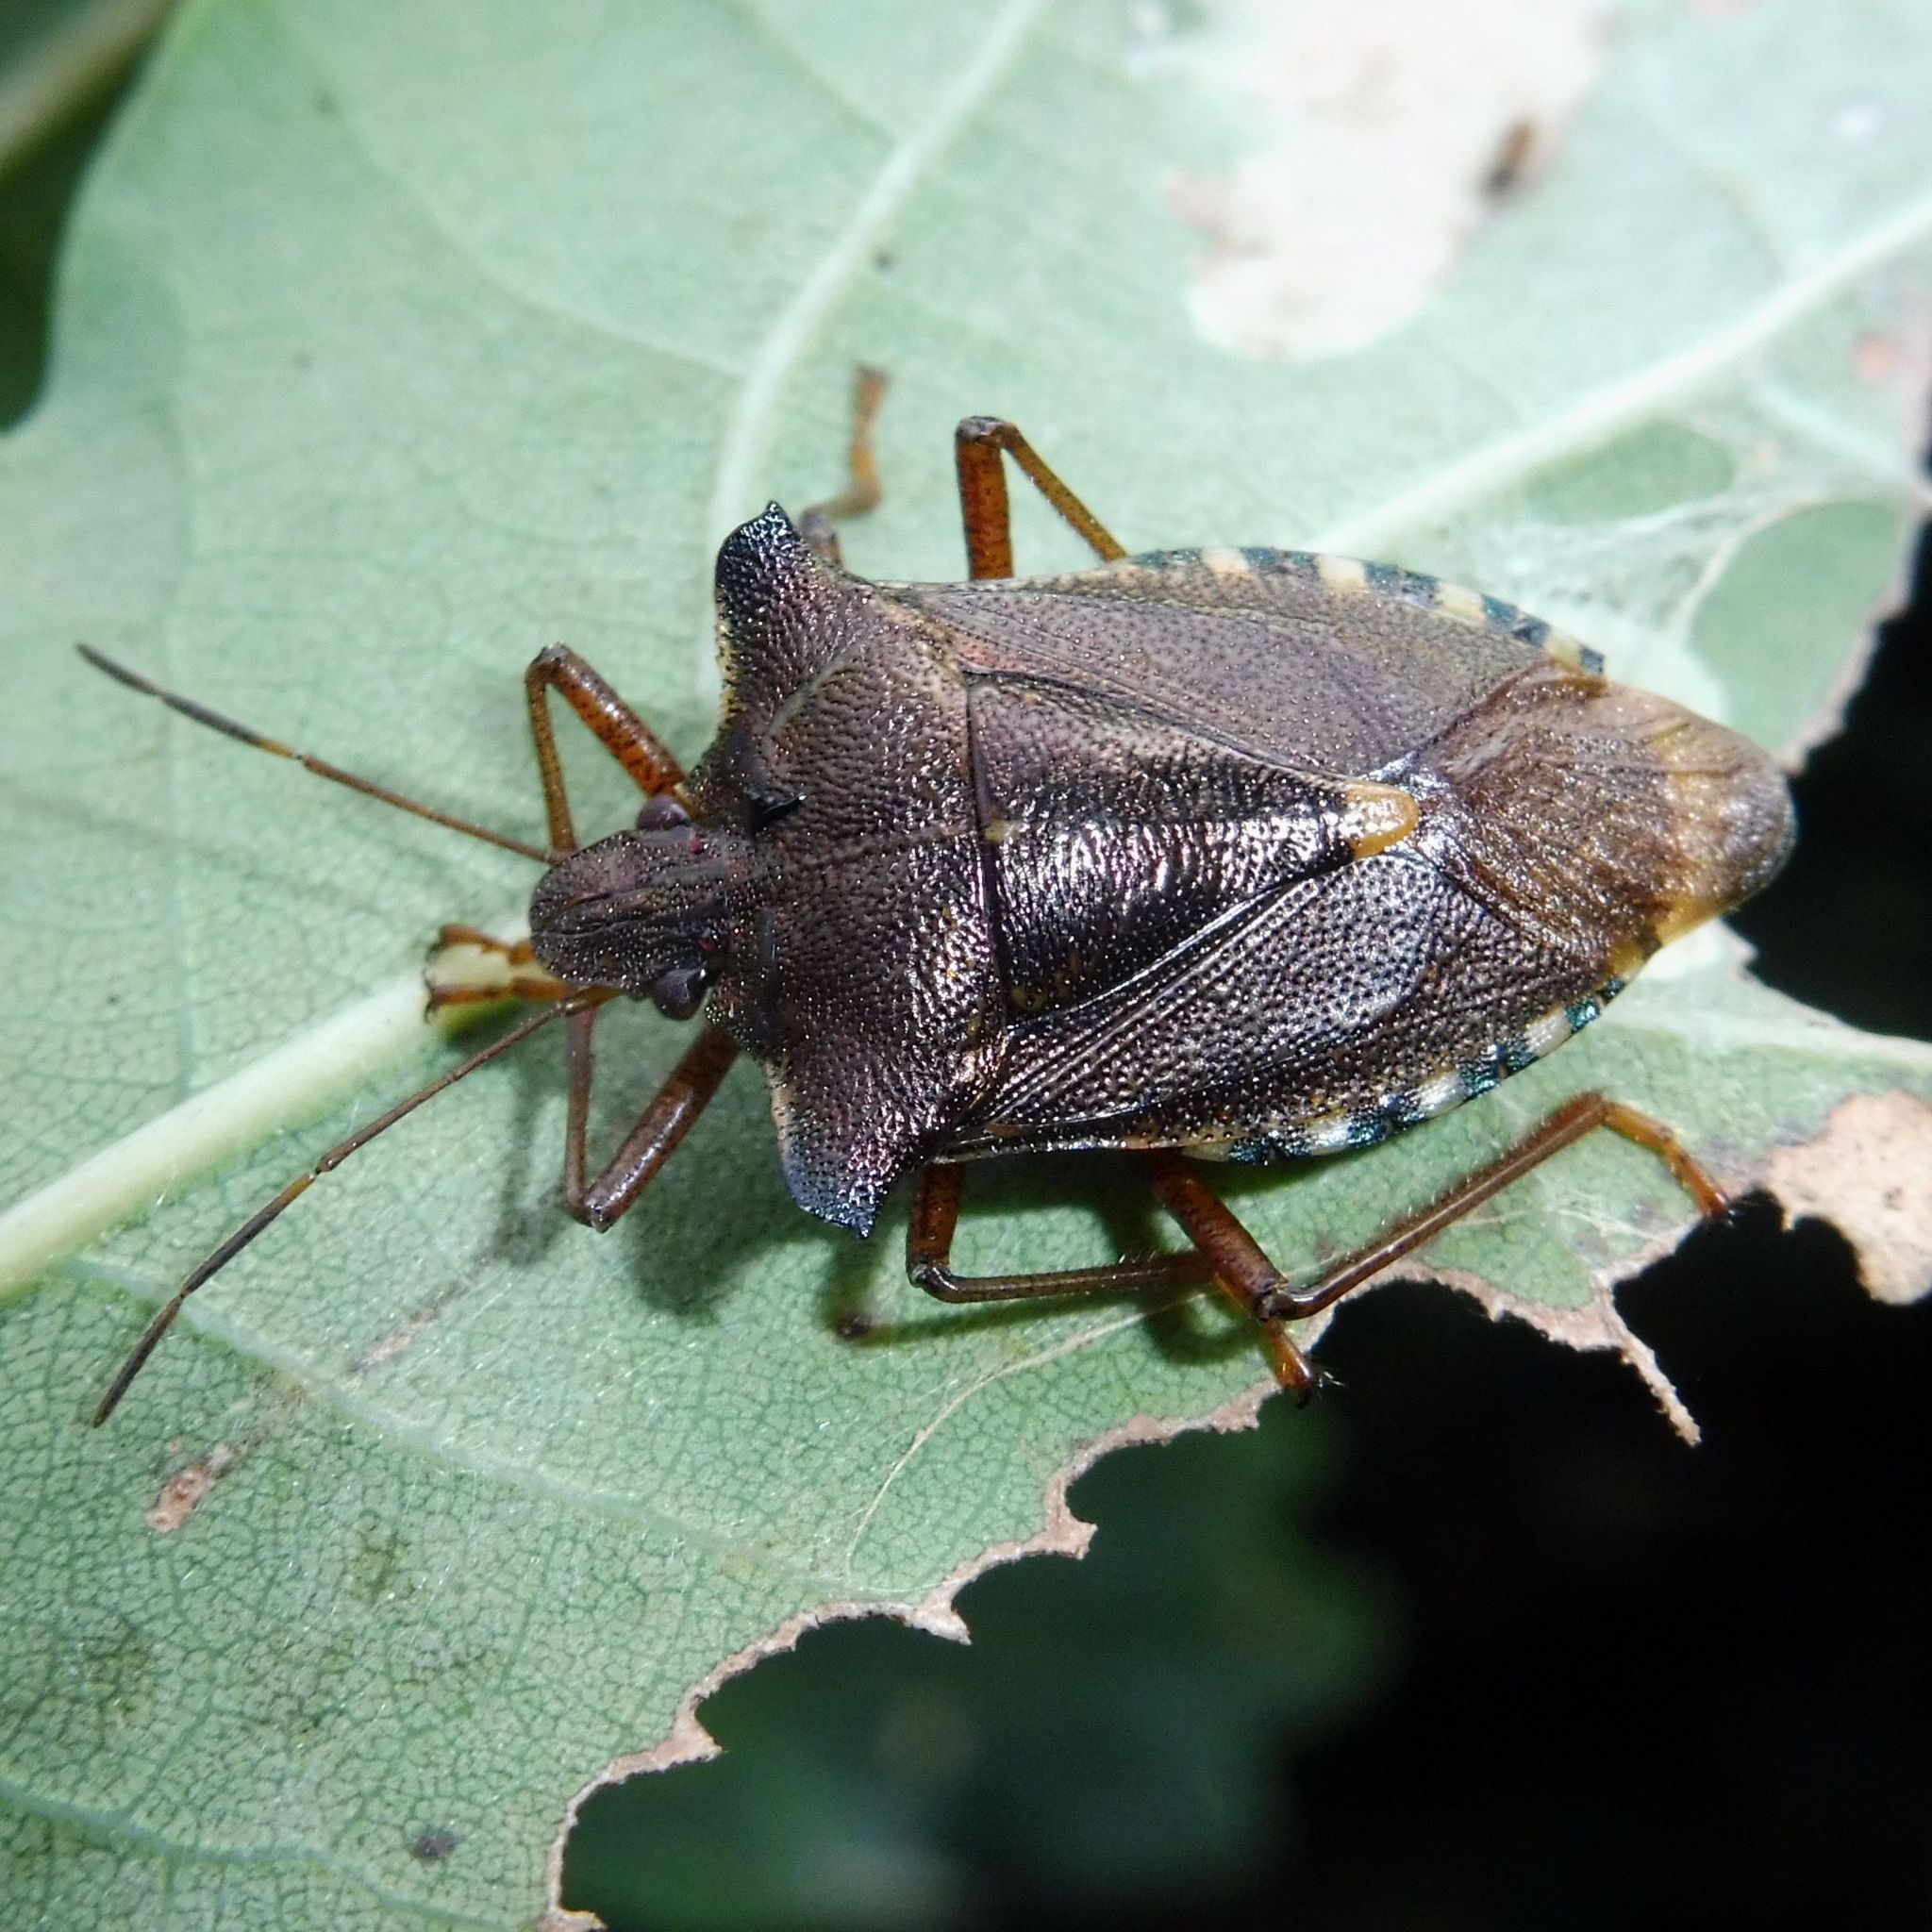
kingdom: Animalia
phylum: Arthropoda
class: Insecta
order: Hemiptera
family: Pentatomidae
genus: Pentatoma
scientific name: Pentatoma rufipes
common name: Forest bug
